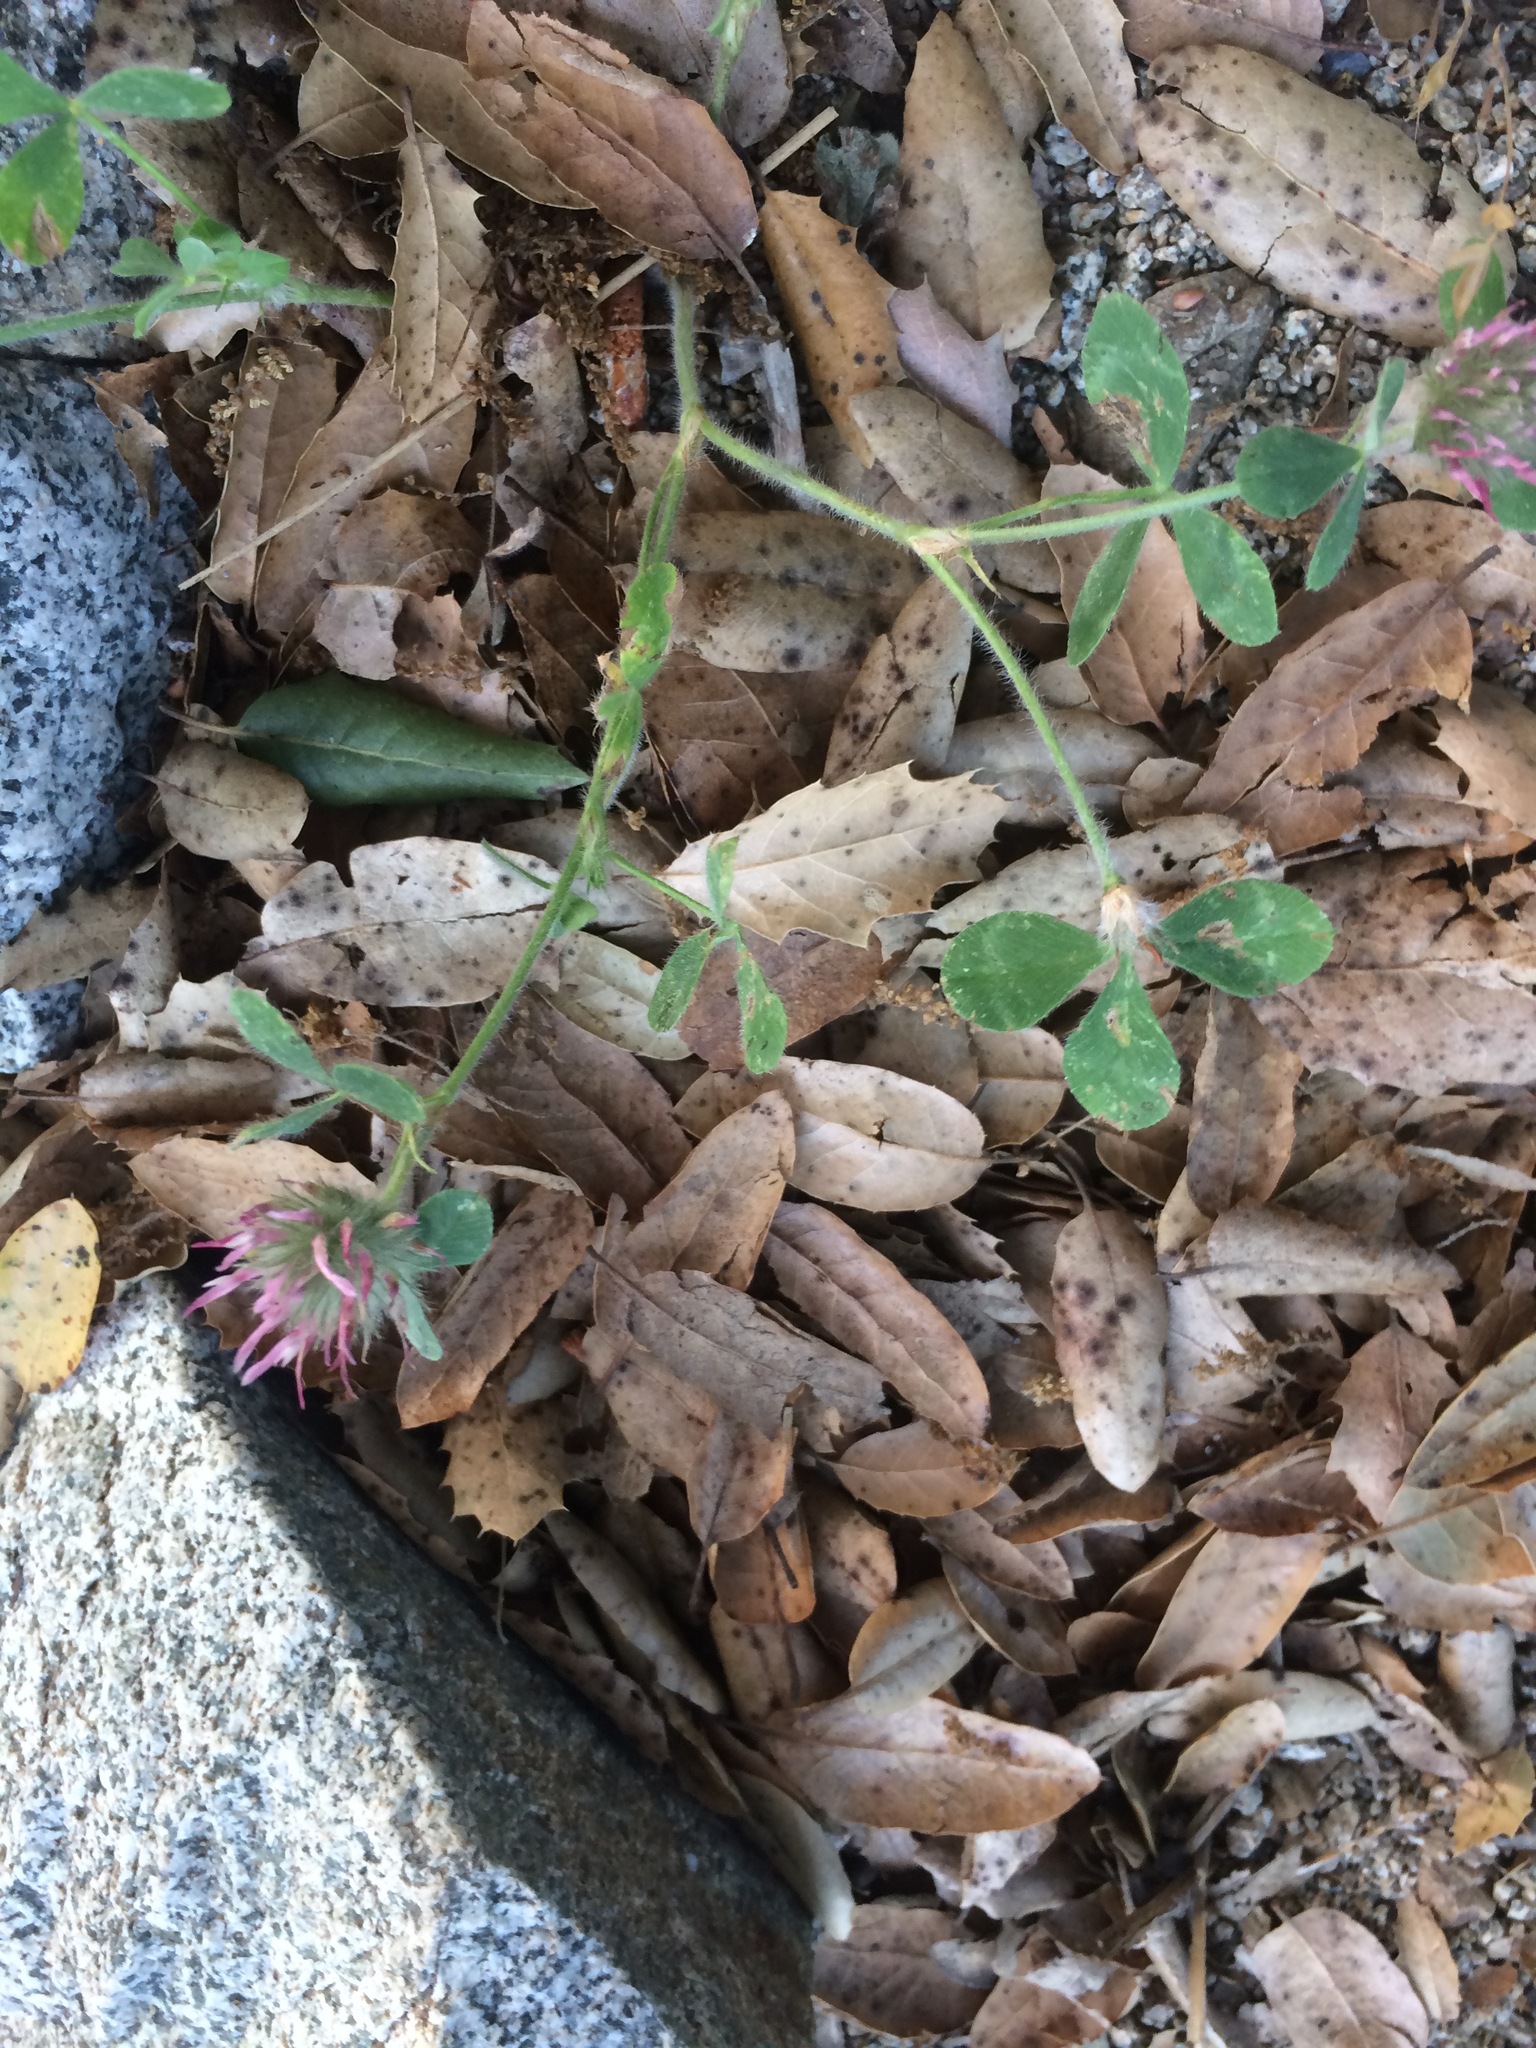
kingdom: Plantae
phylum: Tracheophyta
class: Magnoliopsida
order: Fabales
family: Fabaceae
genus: Trifolium
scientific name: Trifolium hirtum
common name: Rose clover
